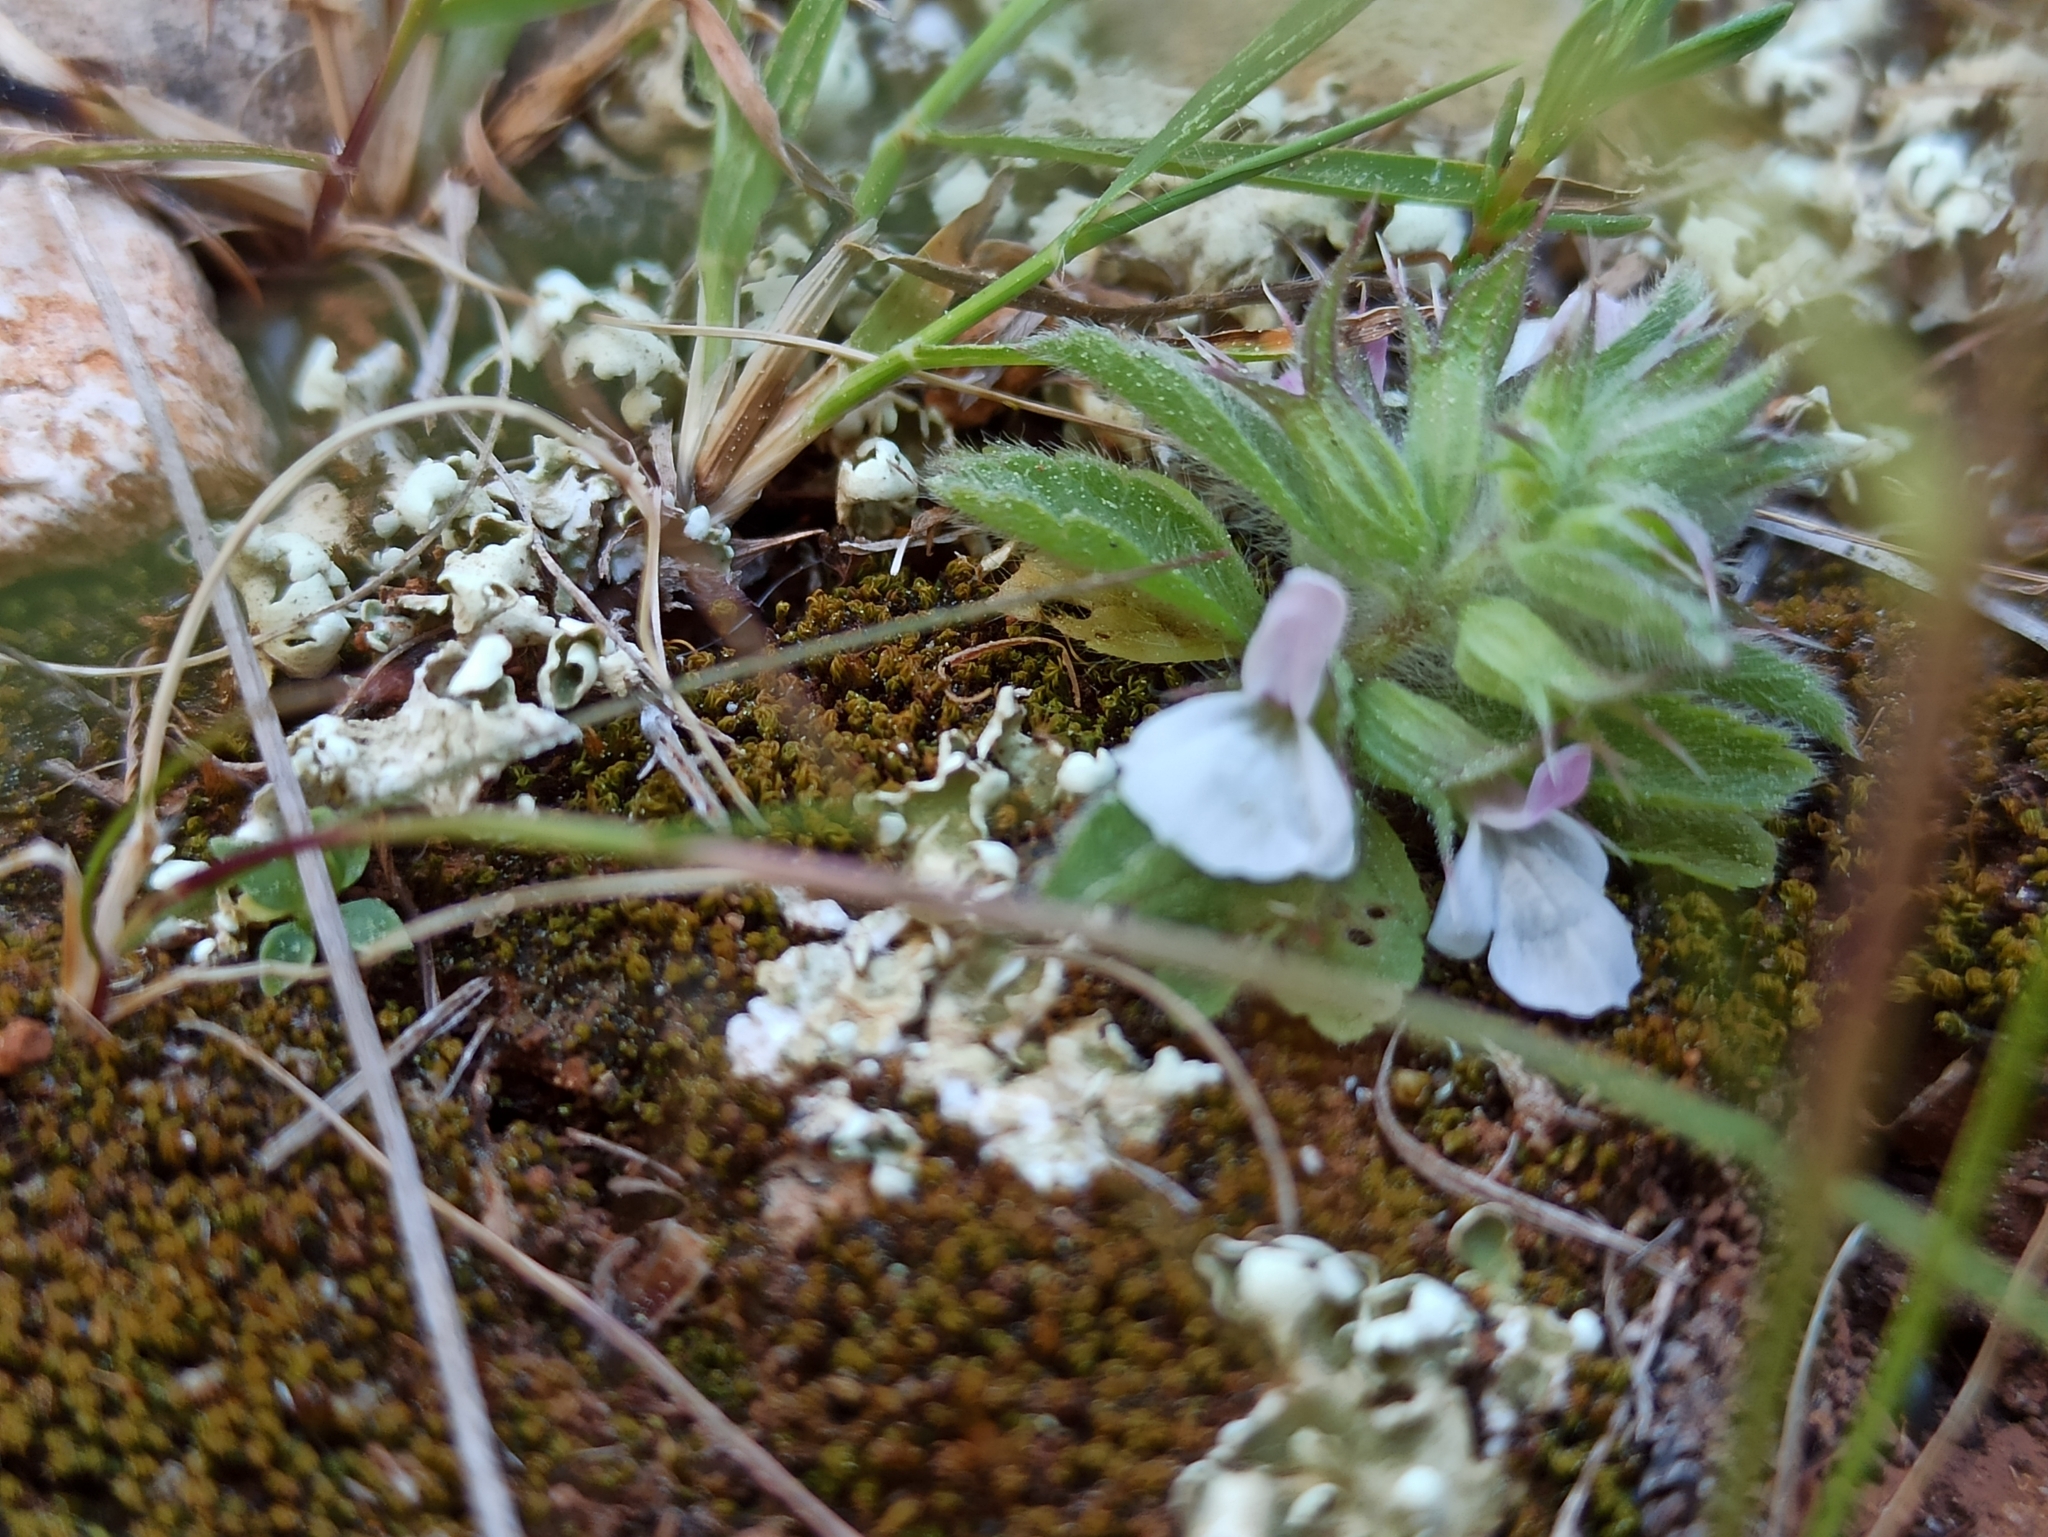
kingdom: Plantae
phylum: Tracheophyta
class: Magnoliopsida
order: Lamiales
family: Lamiaceae
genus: Sideritis
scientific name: Sideritis romana
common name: Simplebeak ironwort
